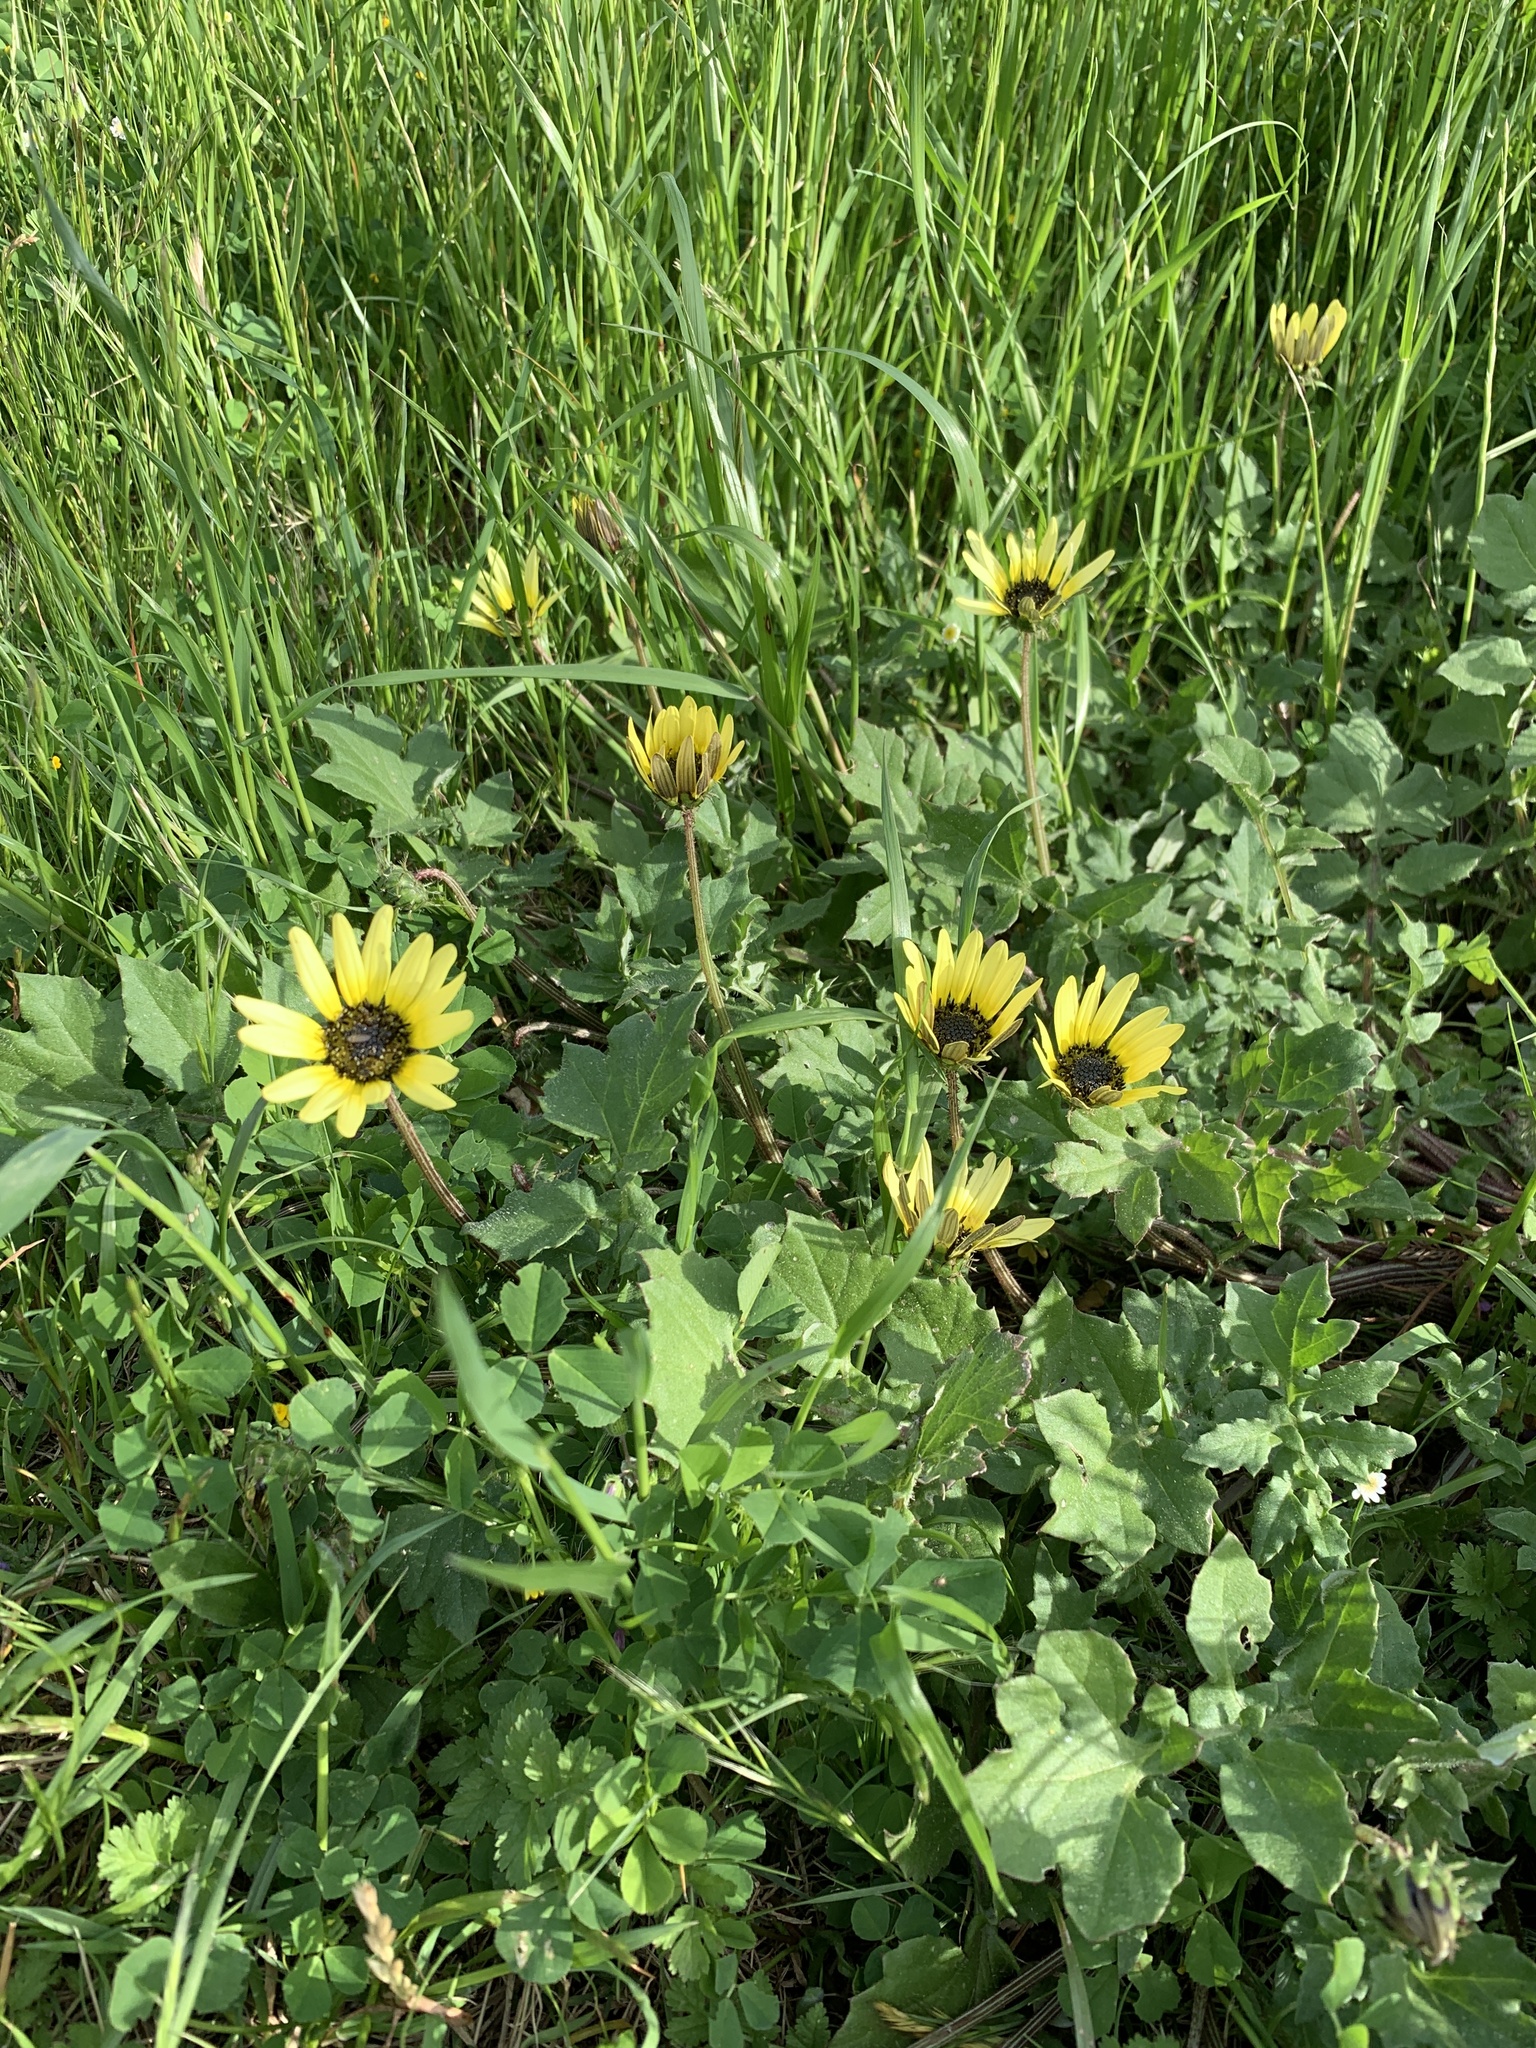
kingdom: Plantae
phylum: Tracheophyta
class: Magnoliopsida
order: Asterales
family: Asteraceae
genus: Arctotheca
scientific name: Arctotheca calendula
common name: Capeweed
